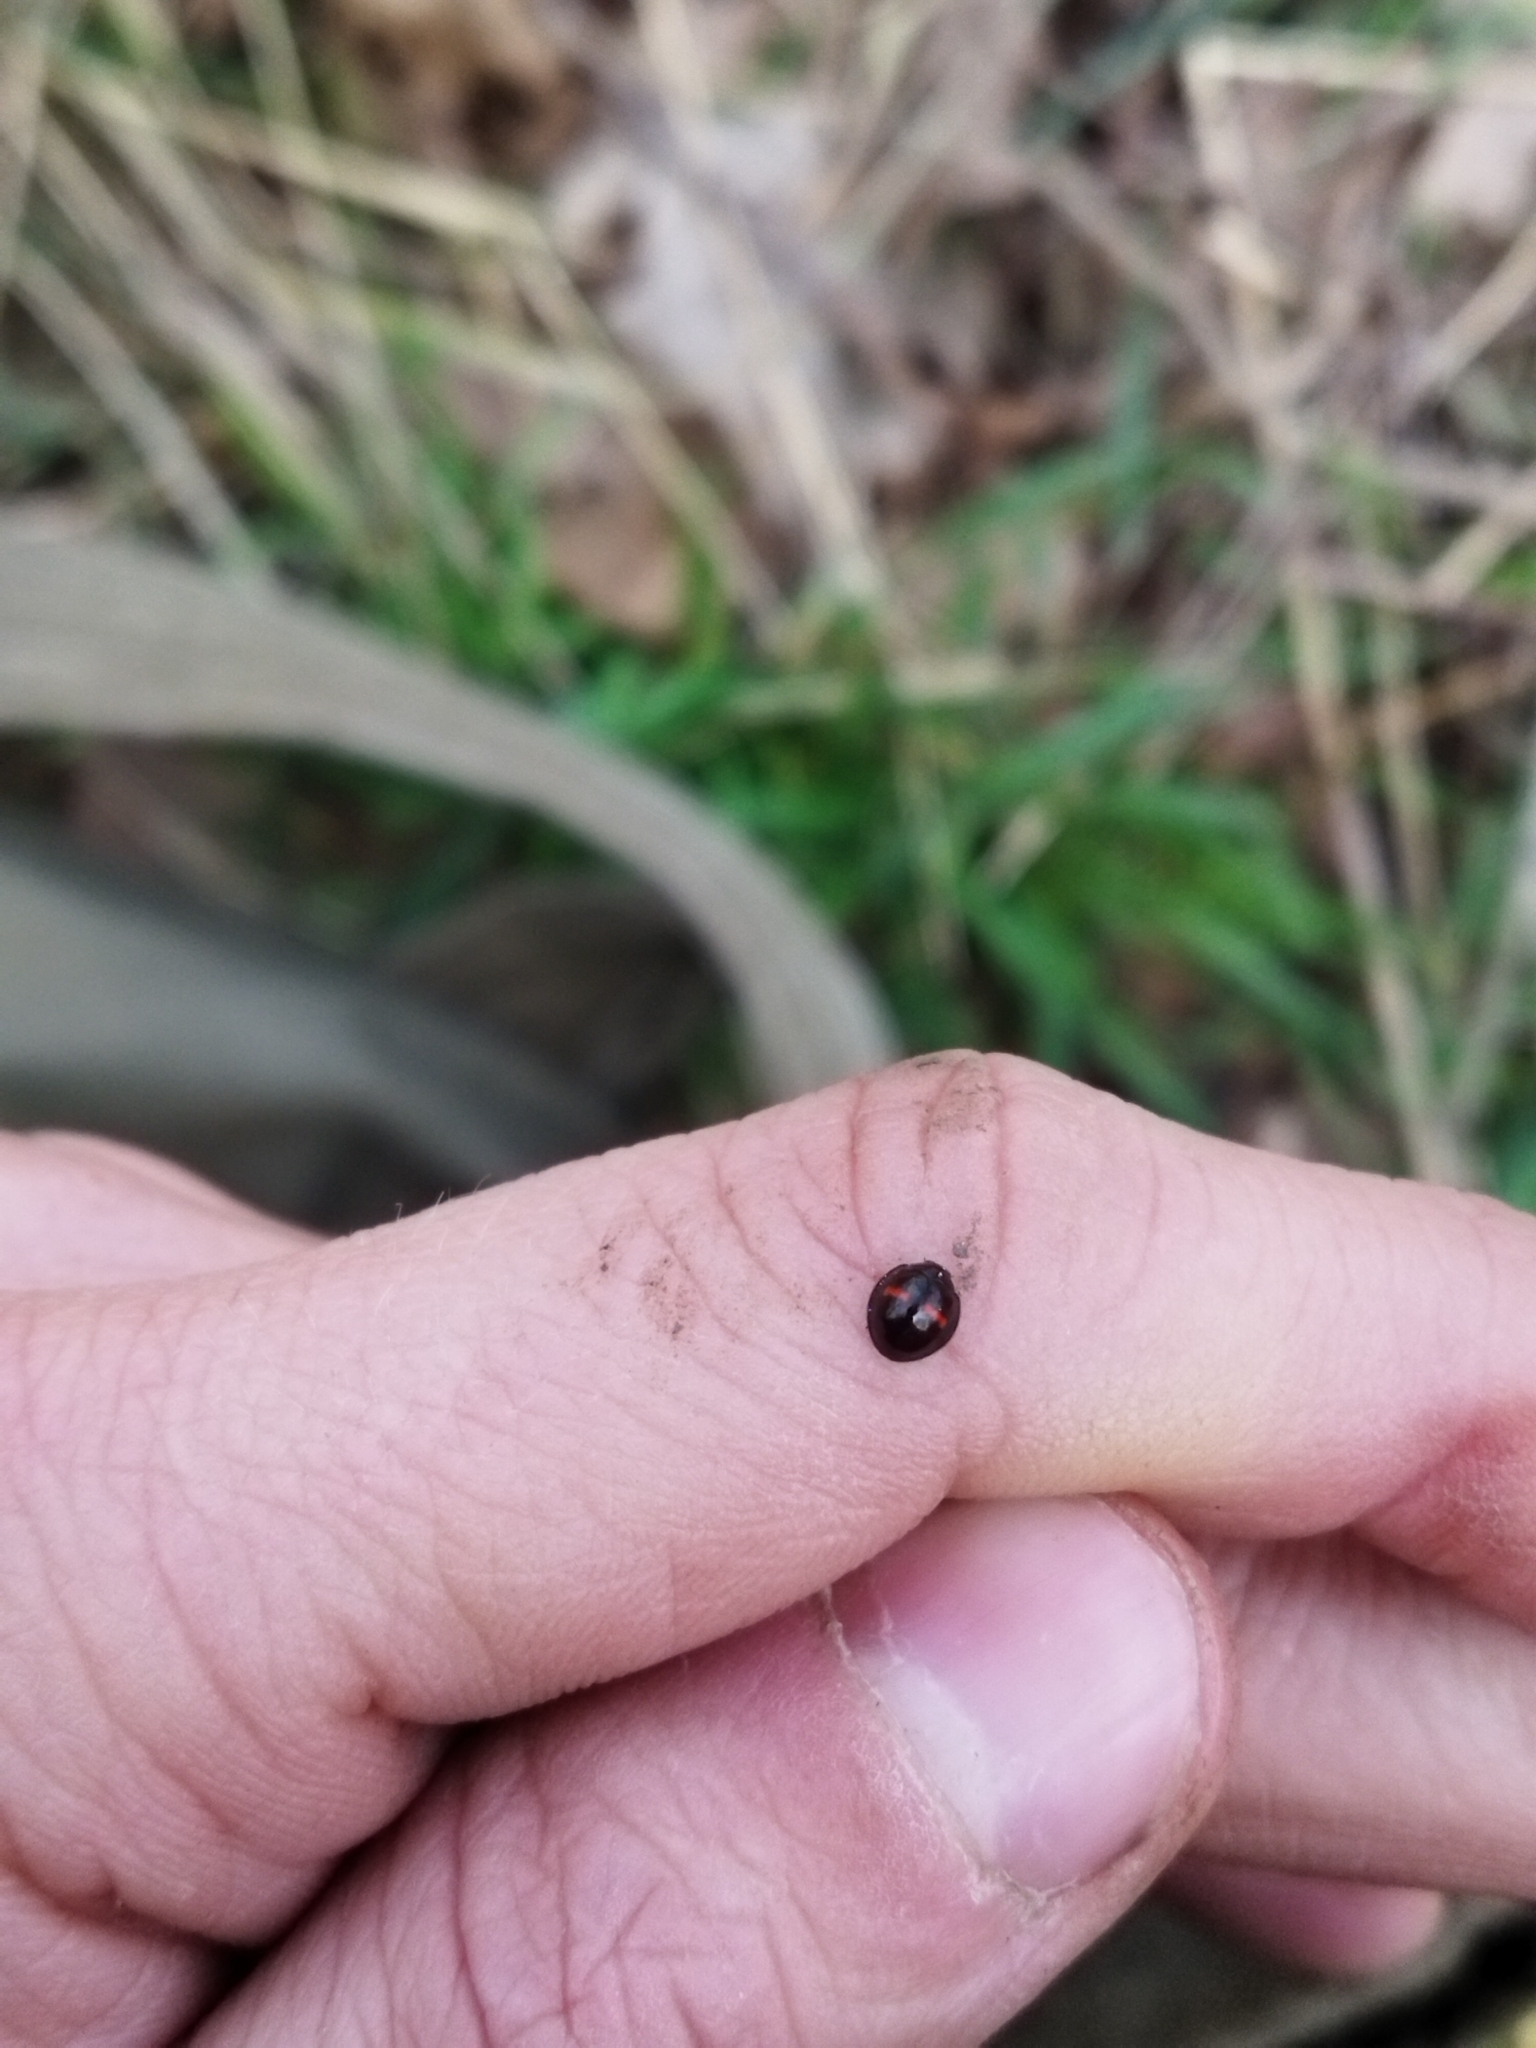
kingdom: Animalia
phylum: Arthropoda
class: Insecta
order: Coleoptera
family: Coccinellidae
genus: Chilocorus
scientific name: Chilocorus bipustulatus
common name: Heather ladybird
